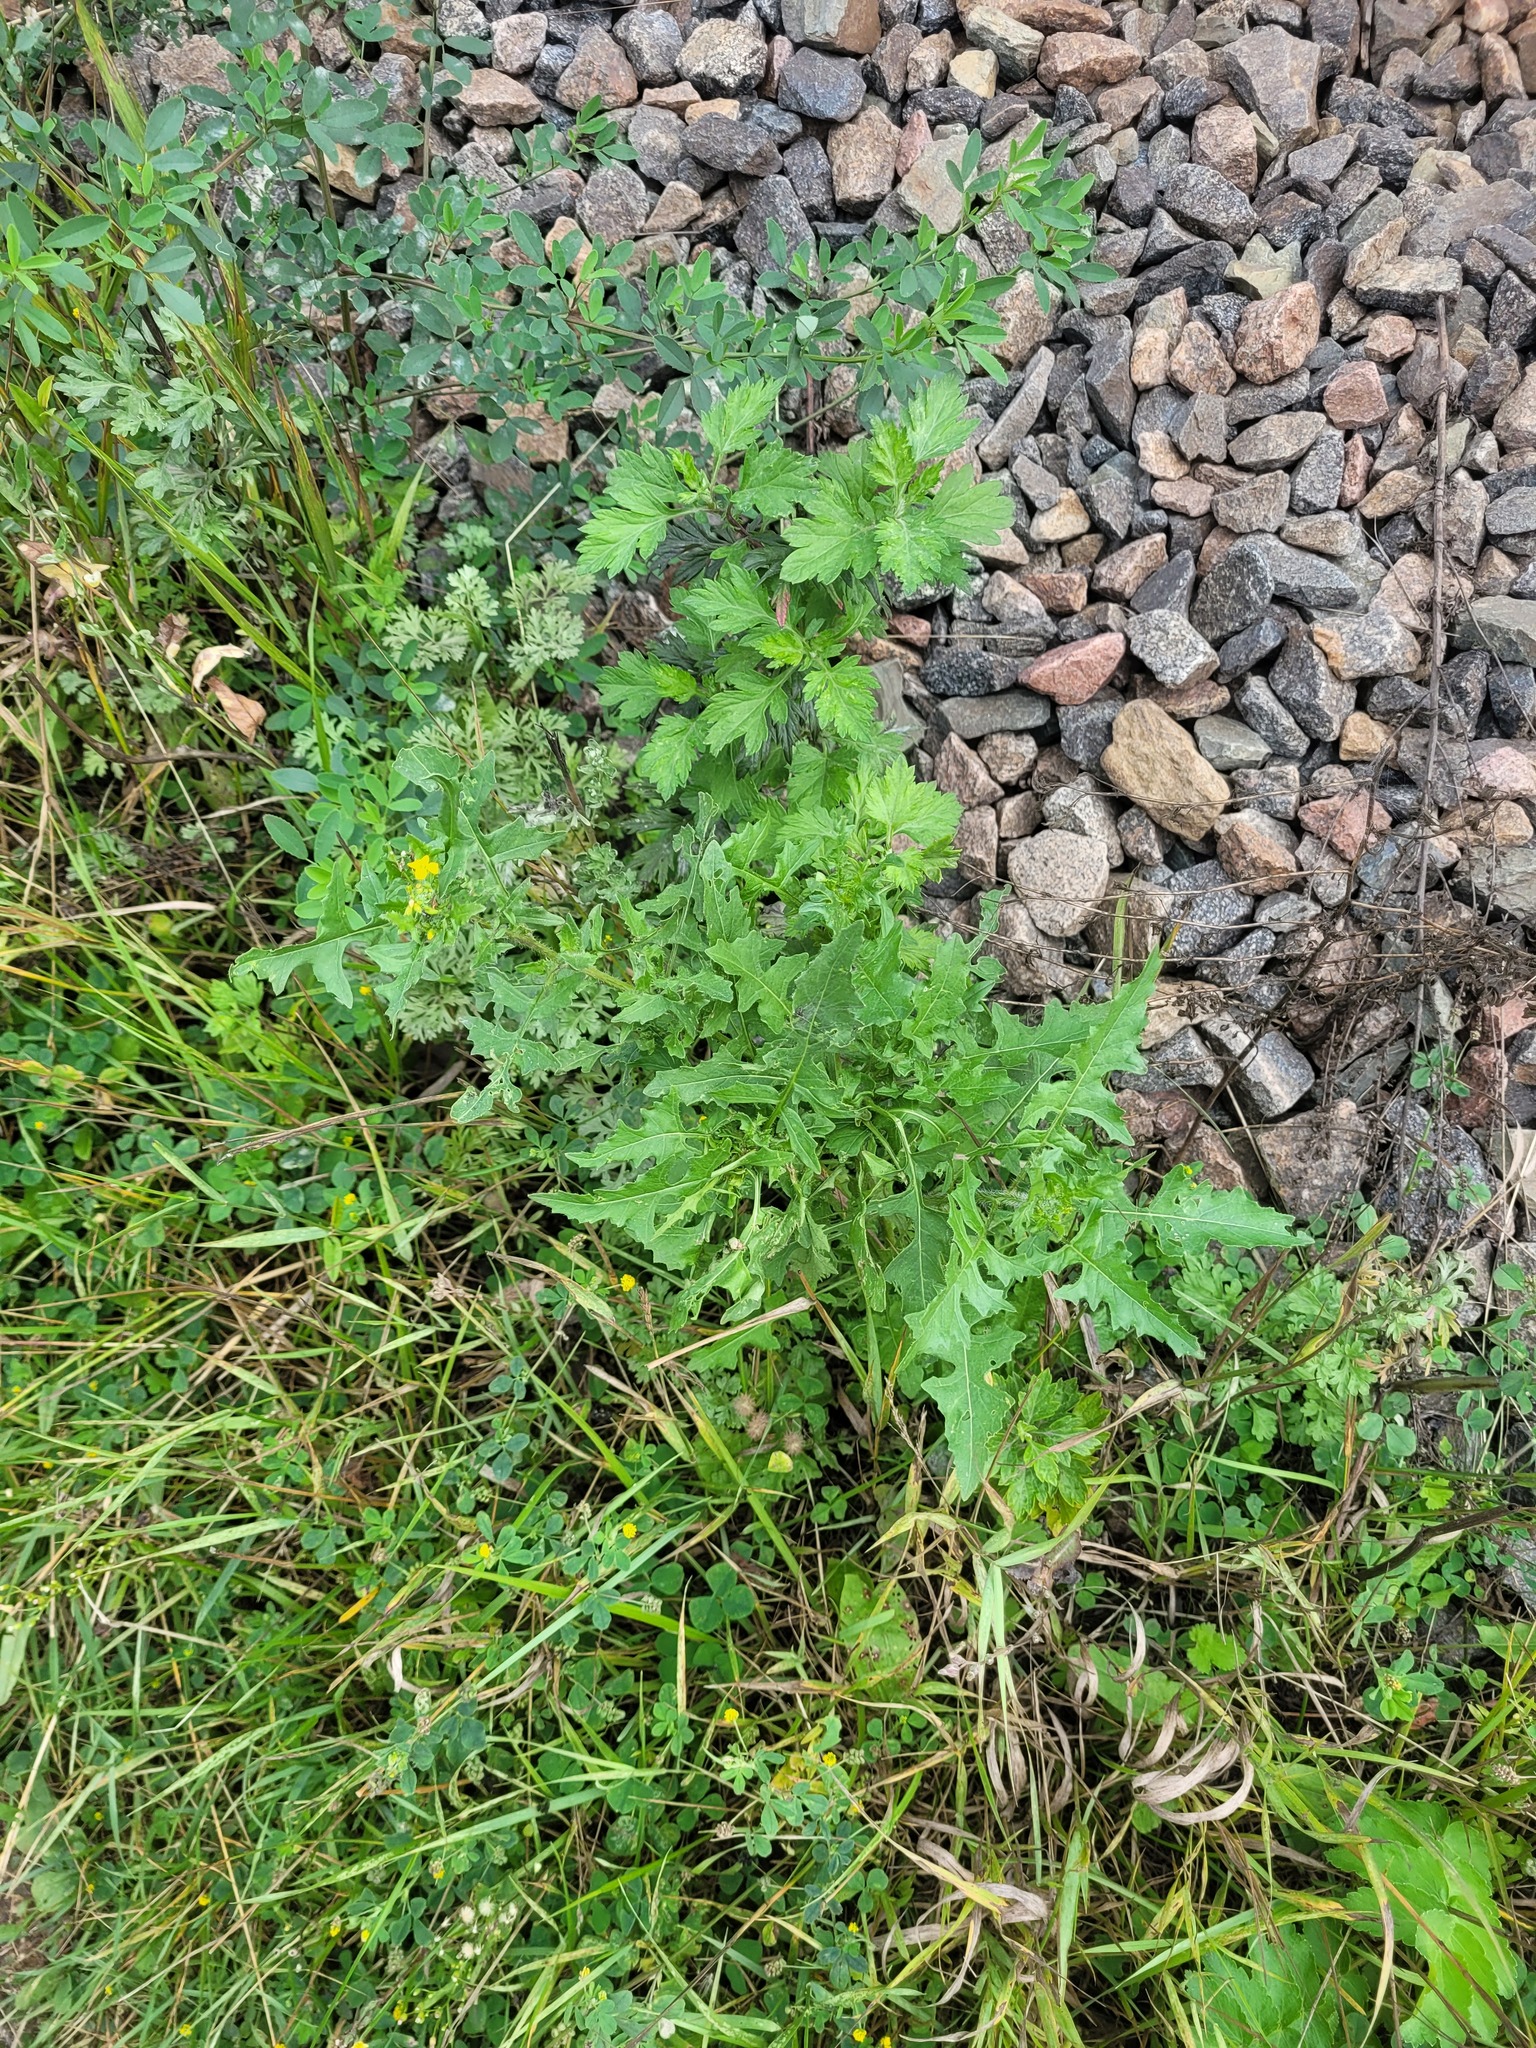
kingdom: Plantae
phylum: Tracheophyta
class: Magnoliopsida
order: Brassicales
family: Brassicaceae
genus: Sisymbrium
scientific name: Sisymbrium loeselii
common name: False london-rocket
